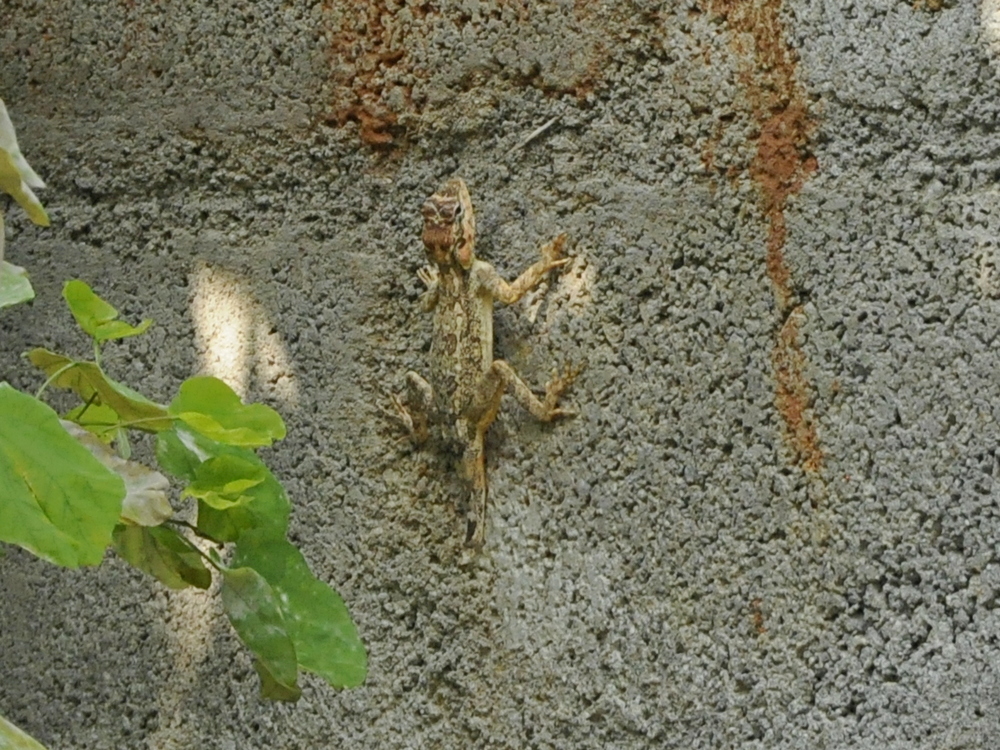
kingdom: Animalia
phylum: Chordata
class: Squamata
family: Agamidae
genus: Calotes
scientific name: Calotes versicolor
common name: Oriental garden lizard
